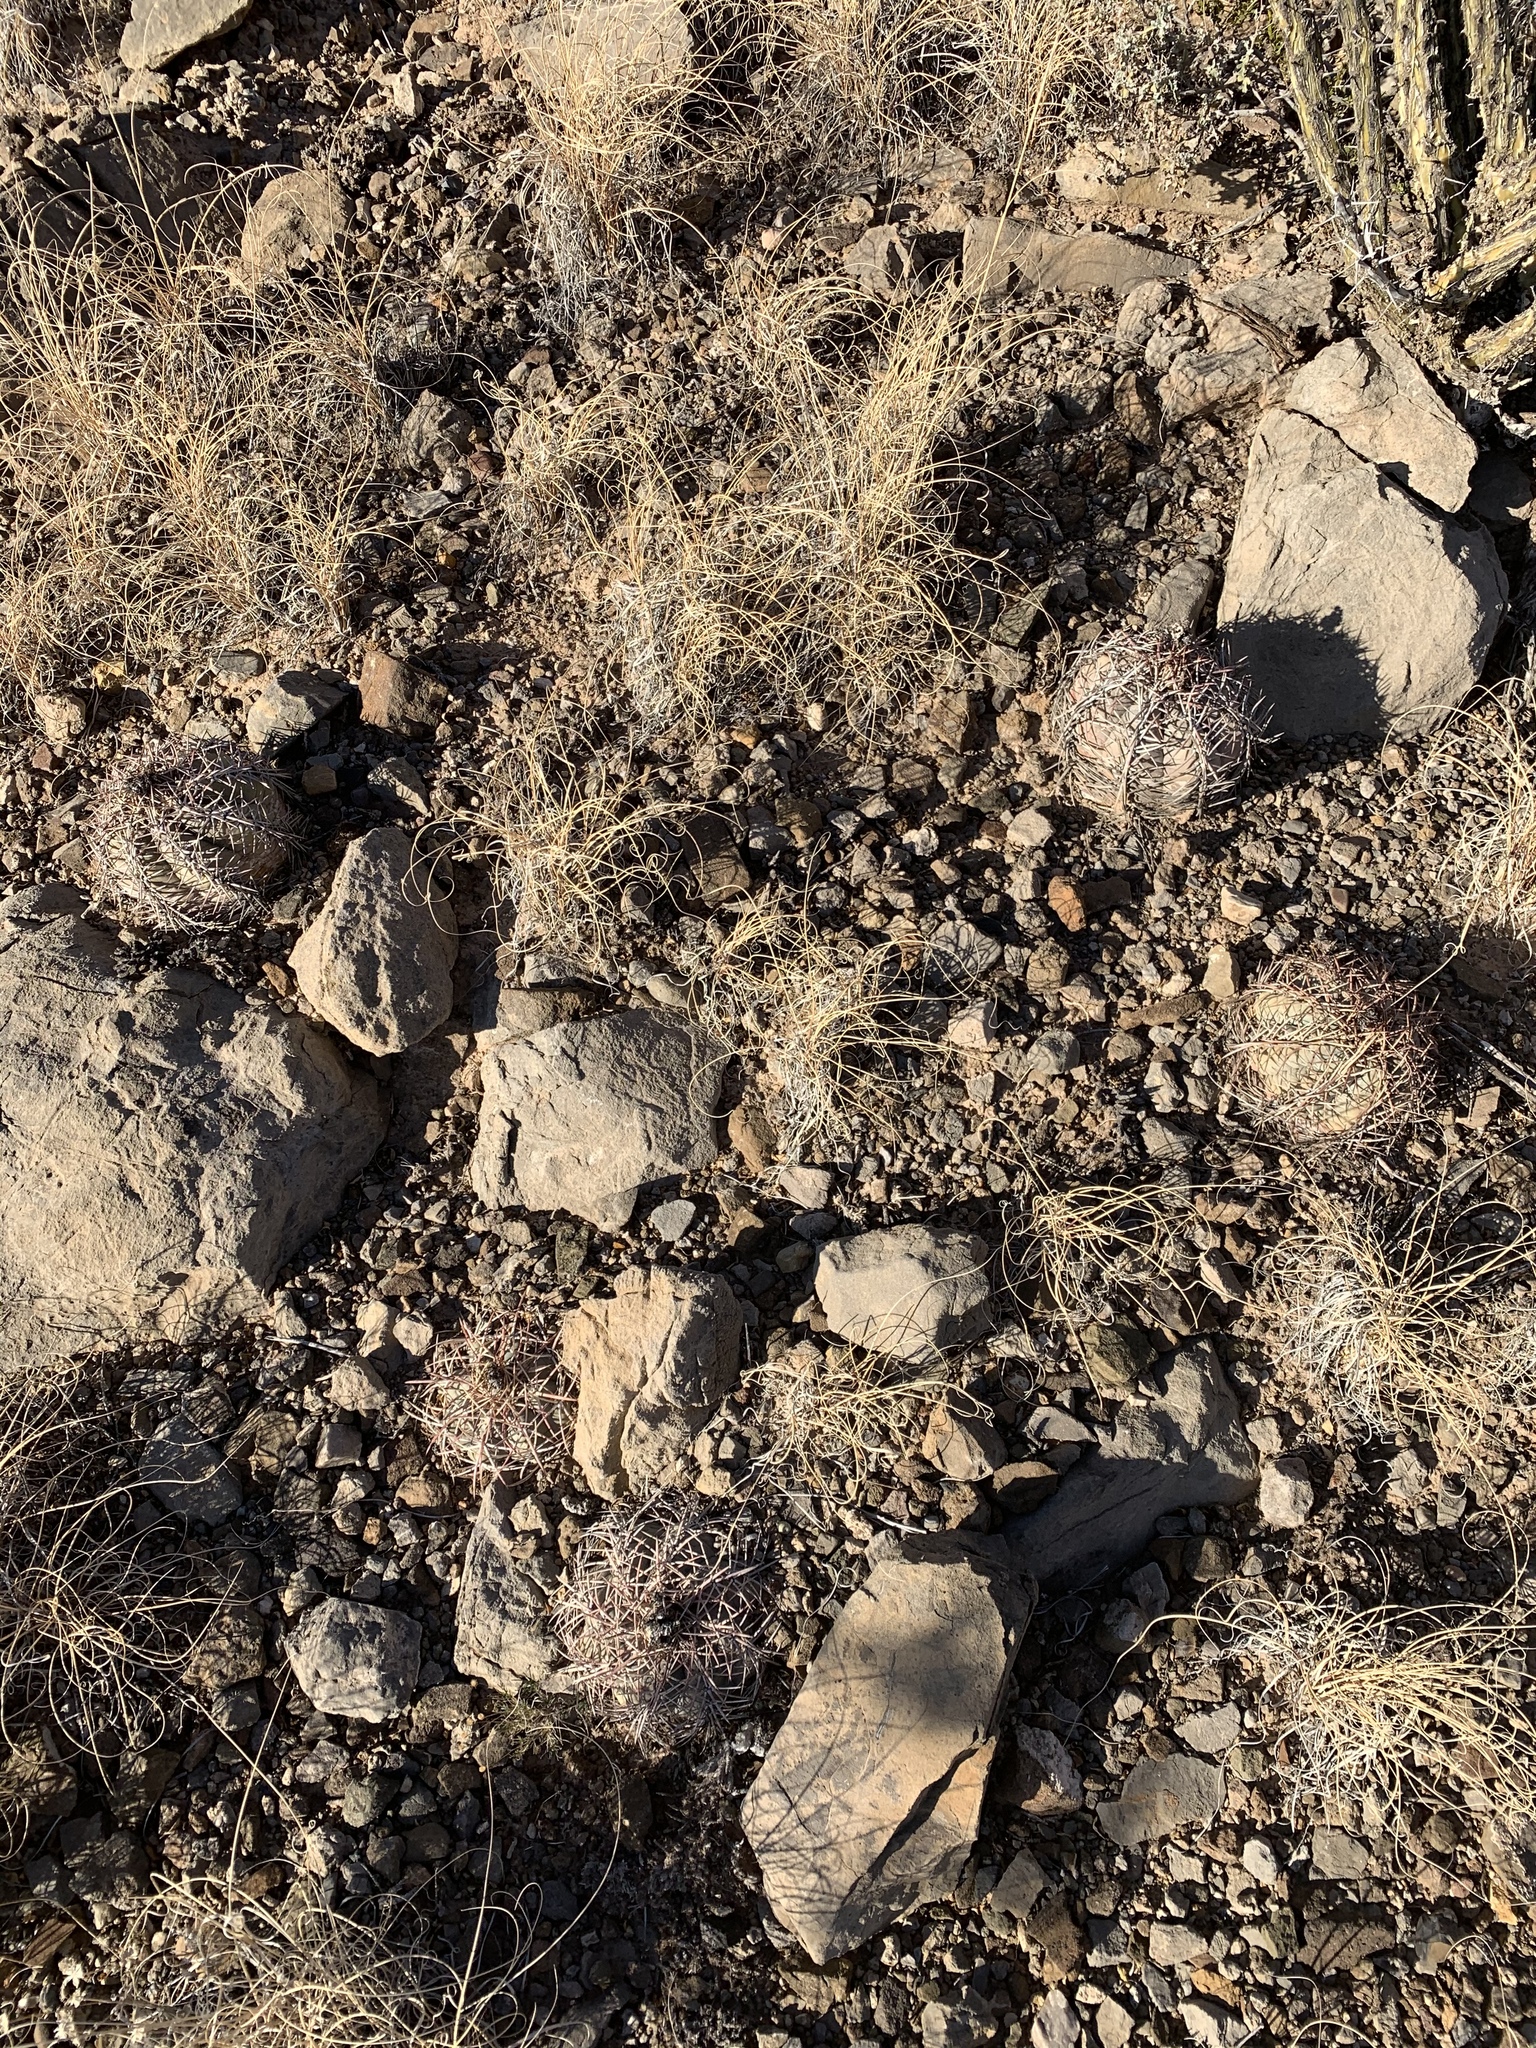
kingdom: Plantae
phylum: Tracheophyta
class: Magnoliopsida
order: Caryophyllales
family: Cactaceae
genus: Echinocactus
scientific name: Echinocactus horizonthalonius
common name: Devilshead
